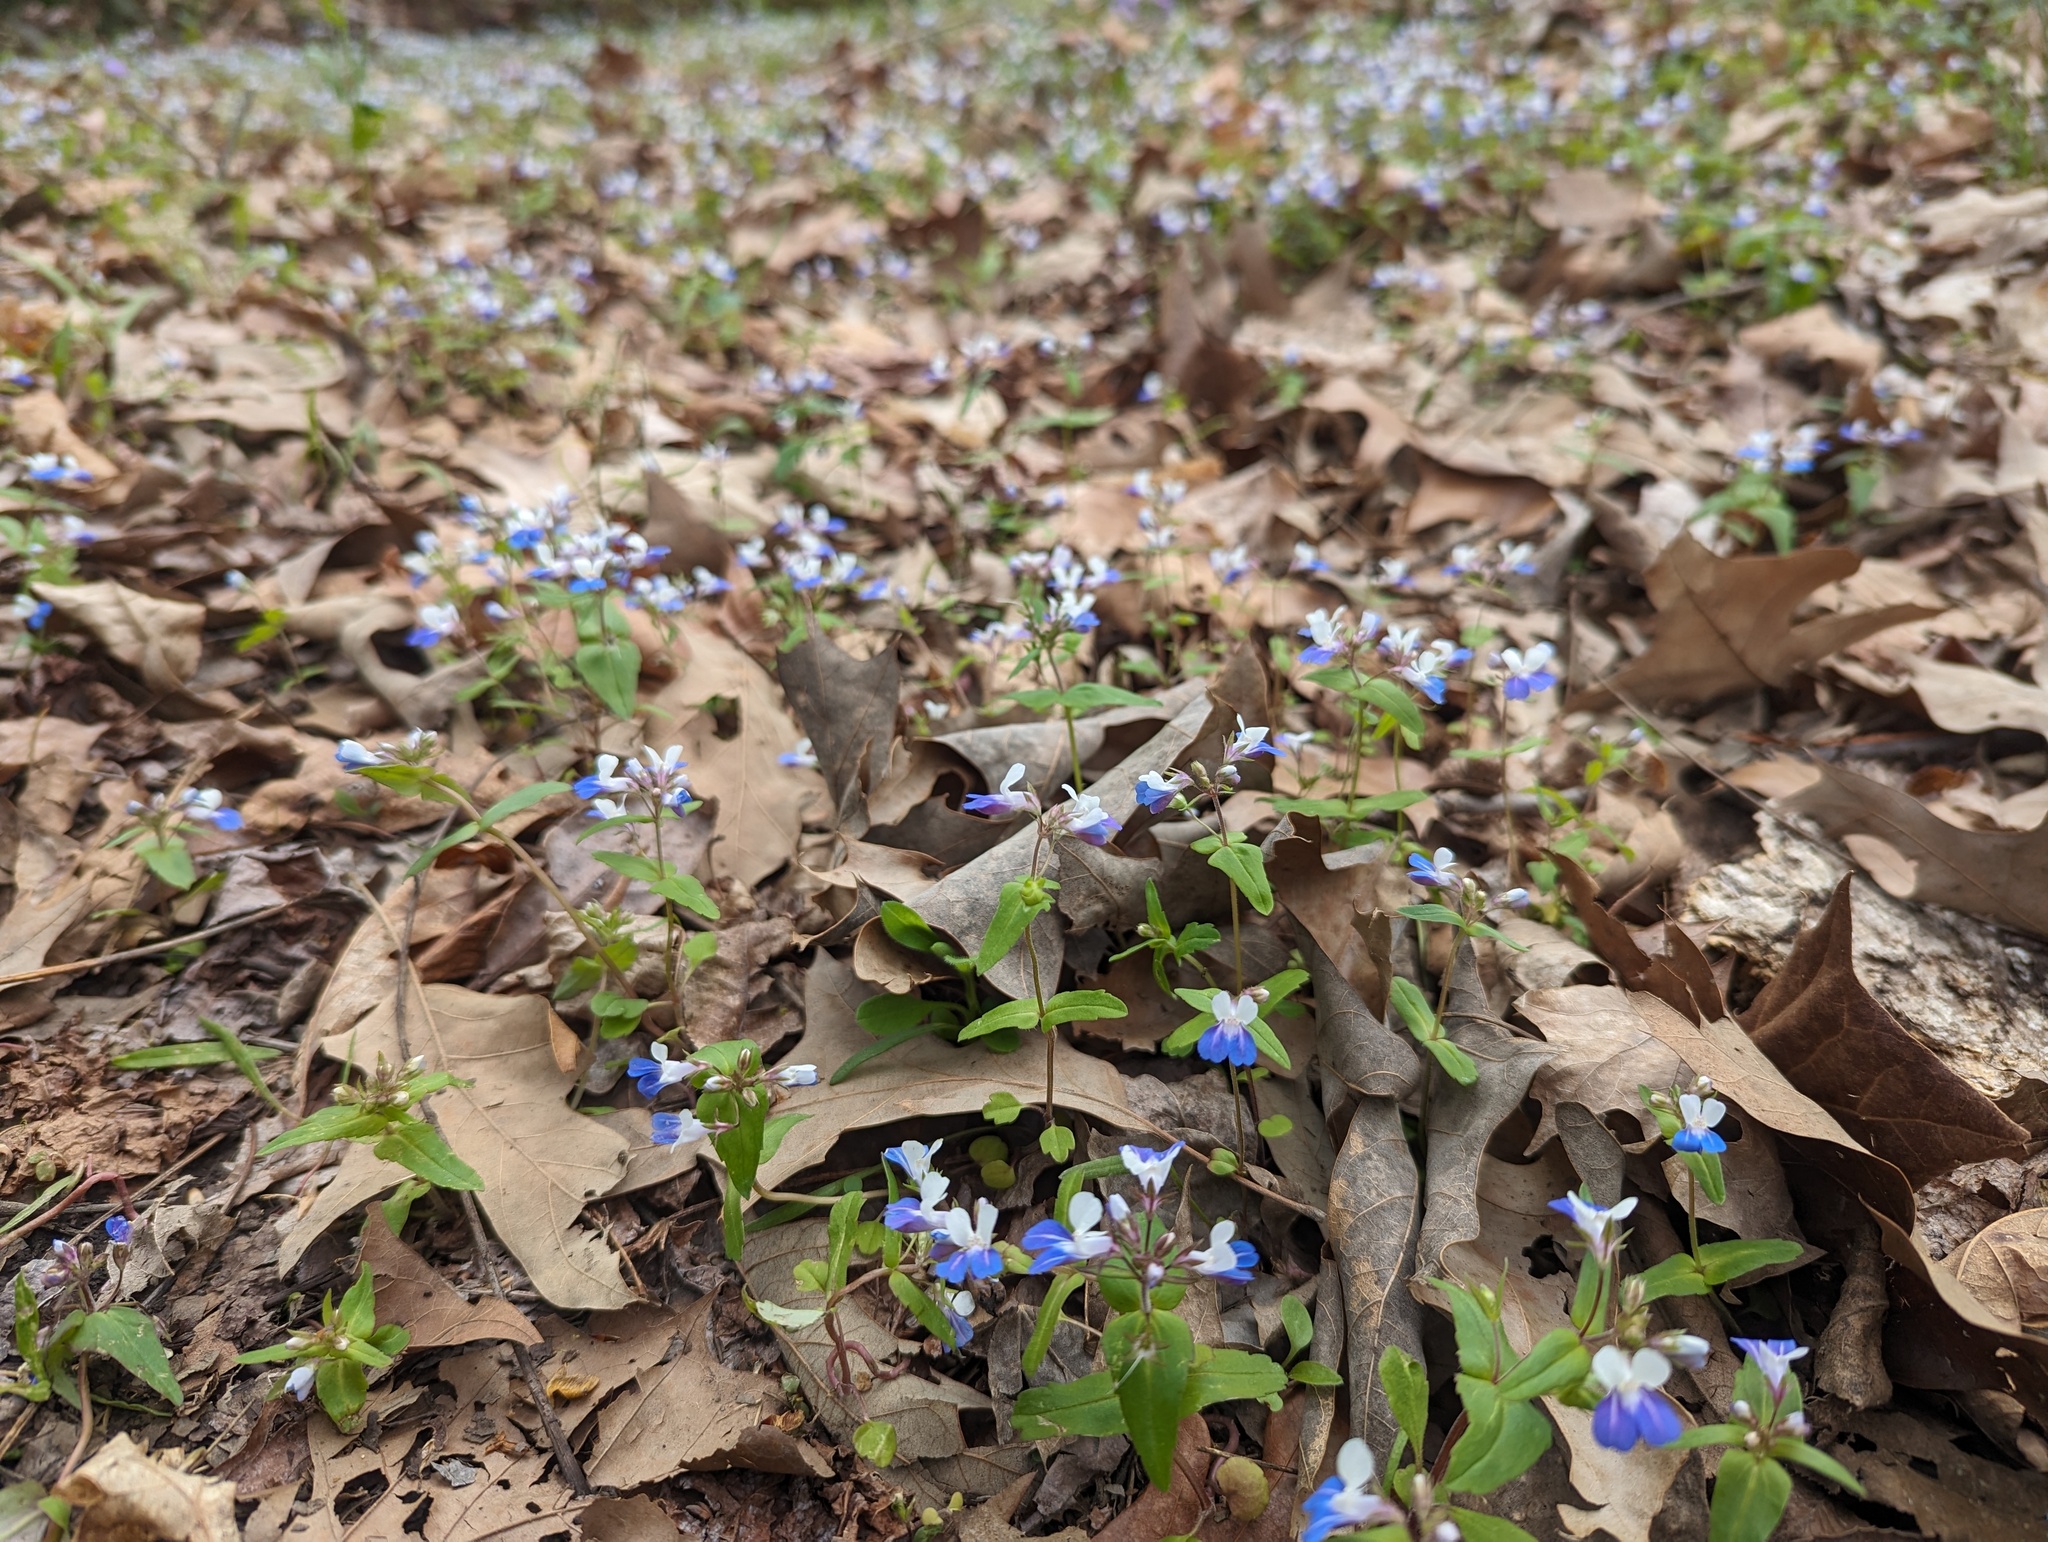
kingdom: Plantae
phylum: Tracheophyta
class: Magnoliopsida
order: Lamiales
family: Plantaginaceae
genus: Collinsia
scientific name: Collinsia verna
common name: Broad-leaved collinsia
